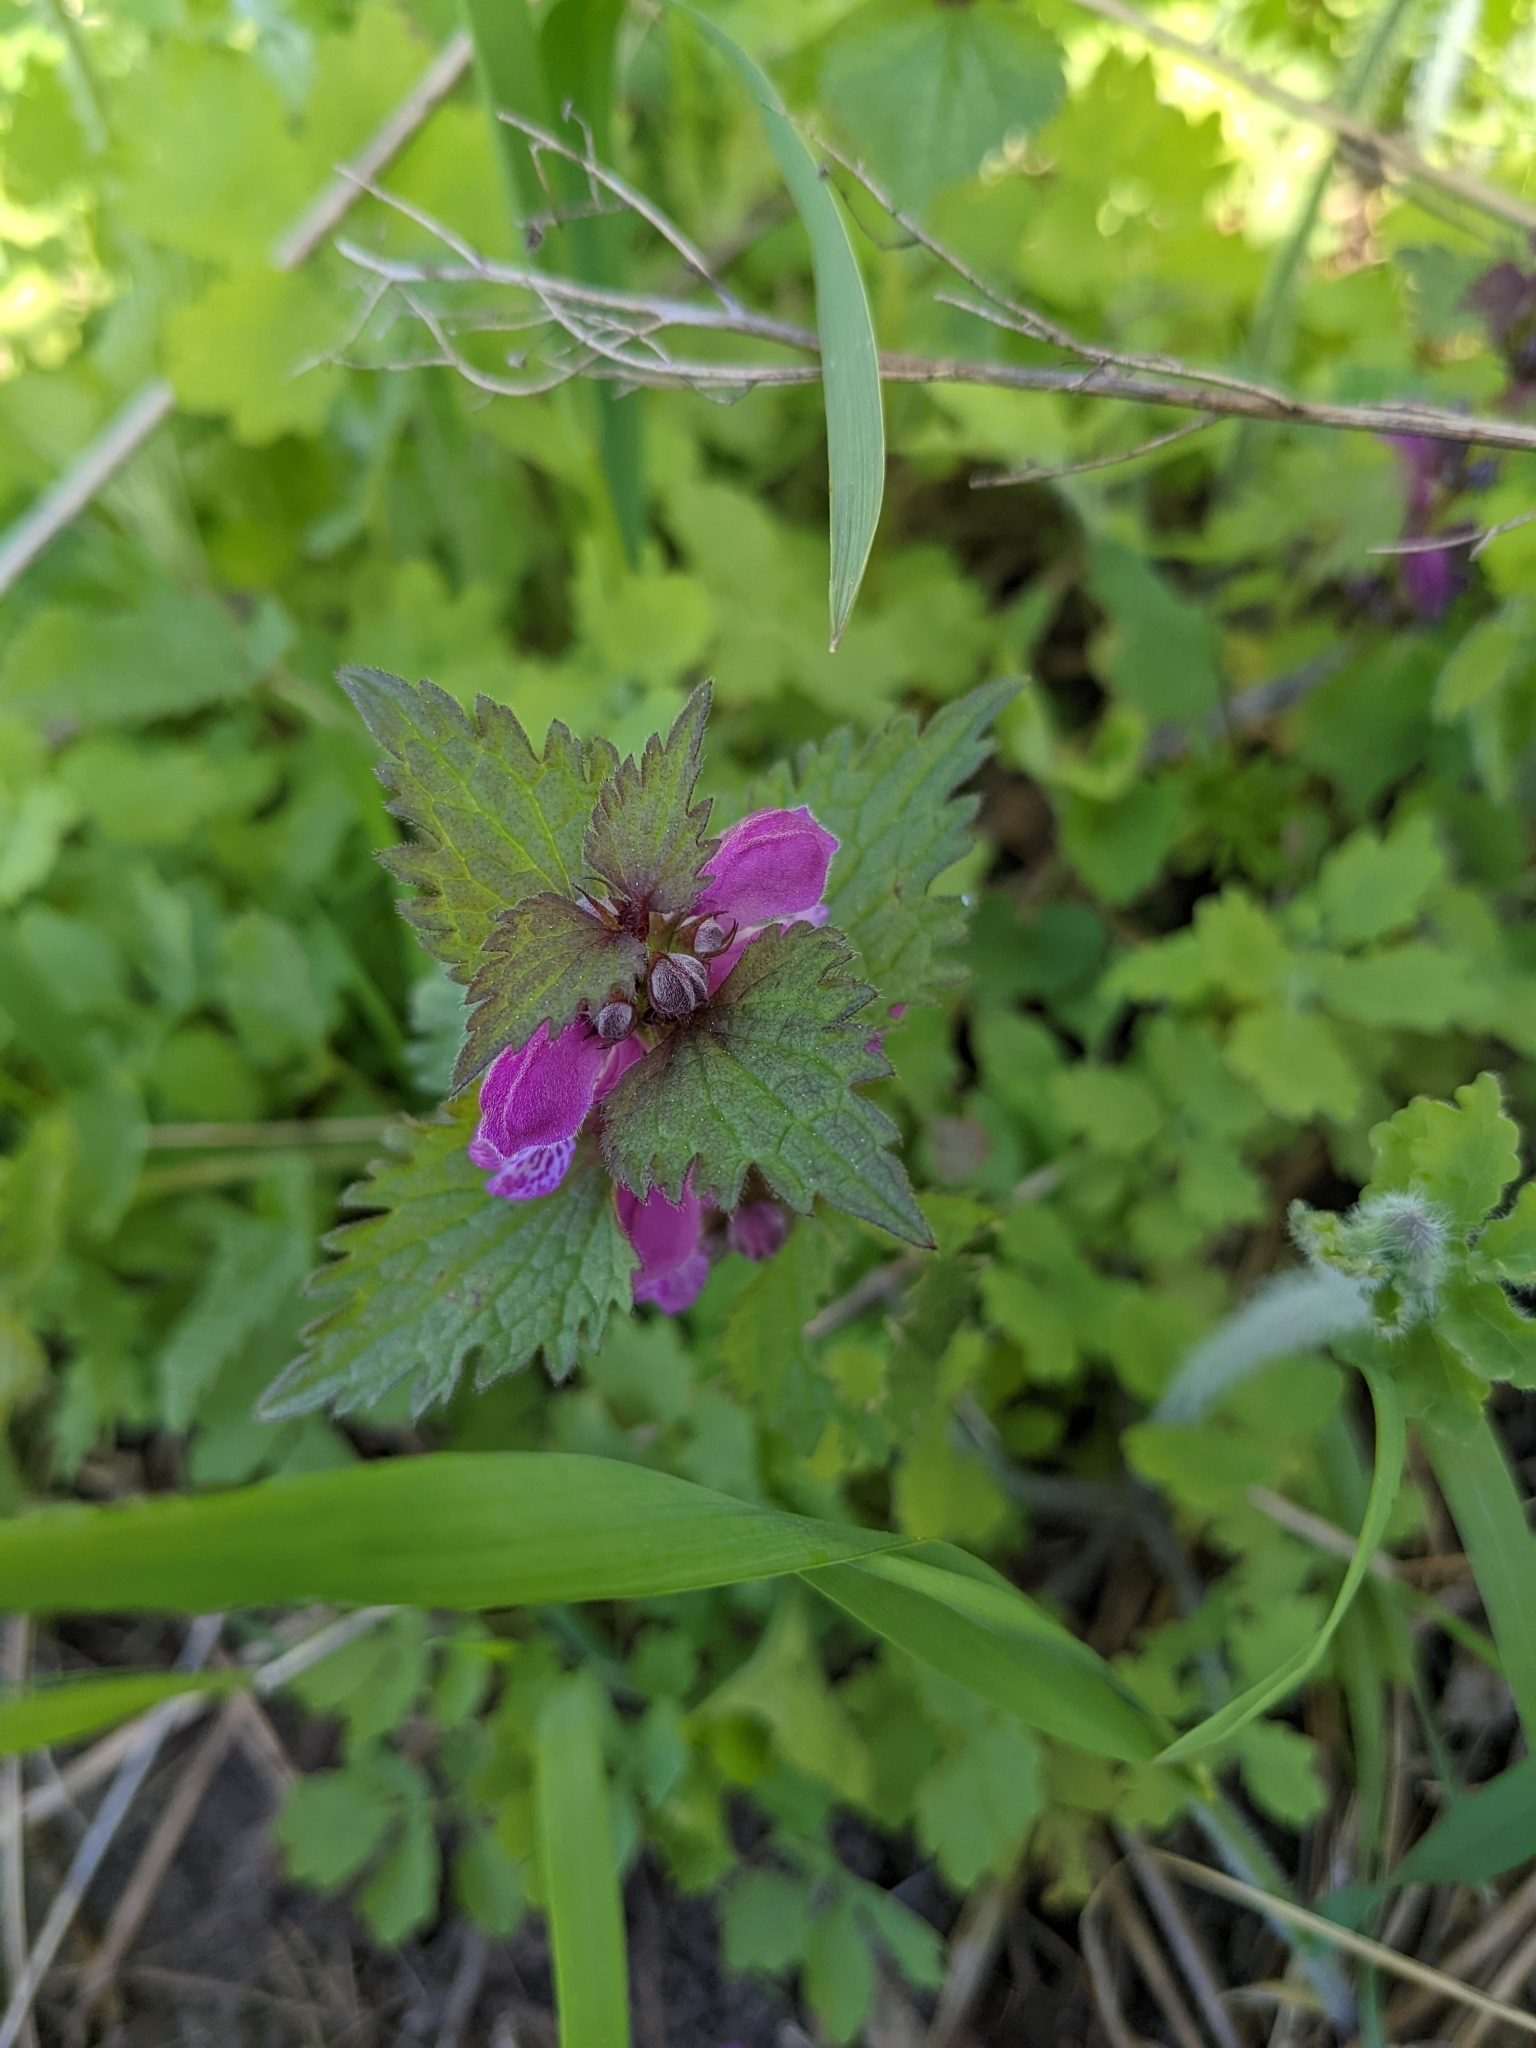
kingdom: Plantae
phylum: Tracheophyta
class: Magnoliopsida
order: Lamiales
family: Lamiaceae
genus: Lamium
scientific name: Lamium maculatum
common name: Spotted dead-nettle
